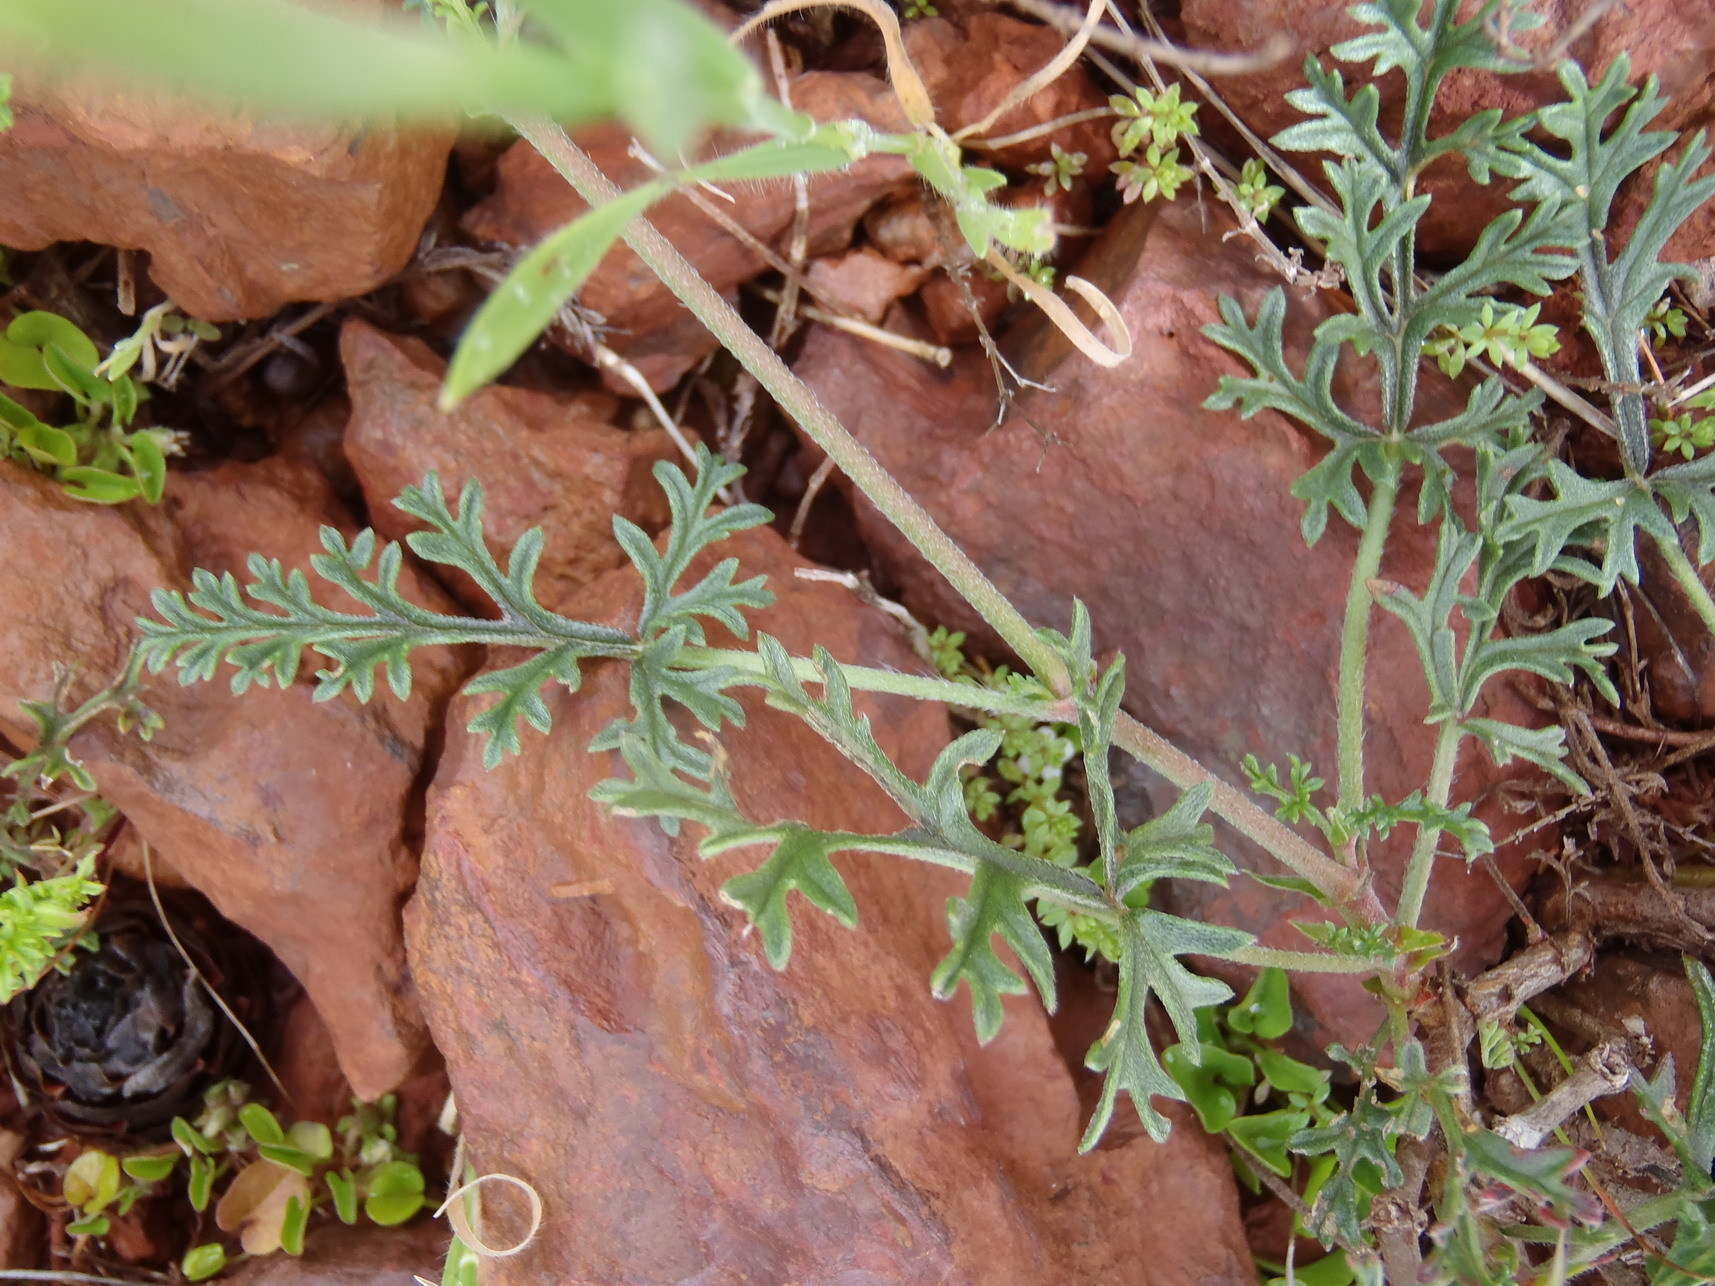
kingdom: Plantae
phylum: Tracheophyta
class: Magnoliopsida
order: Geraniales
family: Geraniaceae
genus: Pelargonium
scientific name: Pelargonium caucalifolium
